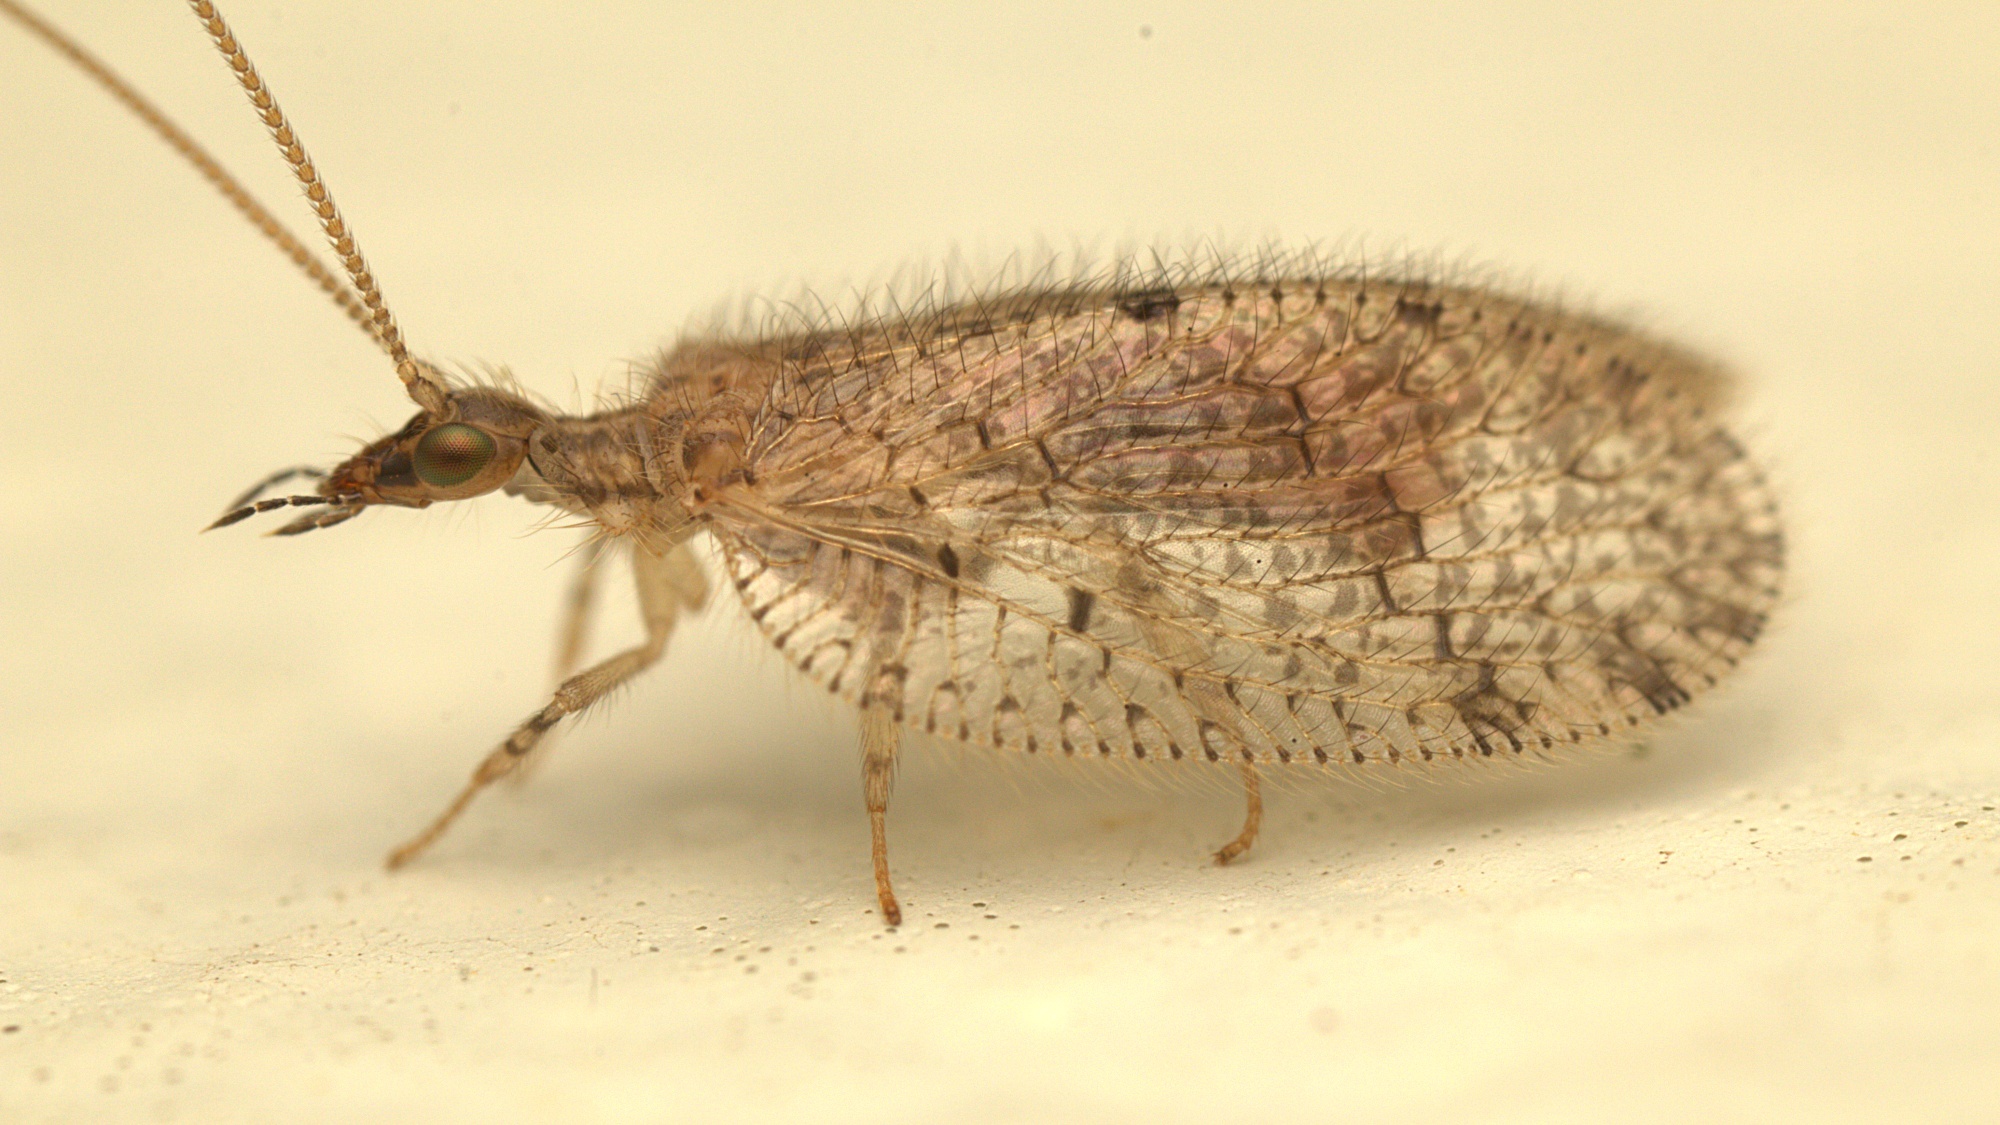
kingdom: Animalia
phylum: Arthropoda
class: Insecta
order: Neuroptera
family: Hemerobiidae
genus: Psectra
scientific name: Psectra nakaharai
